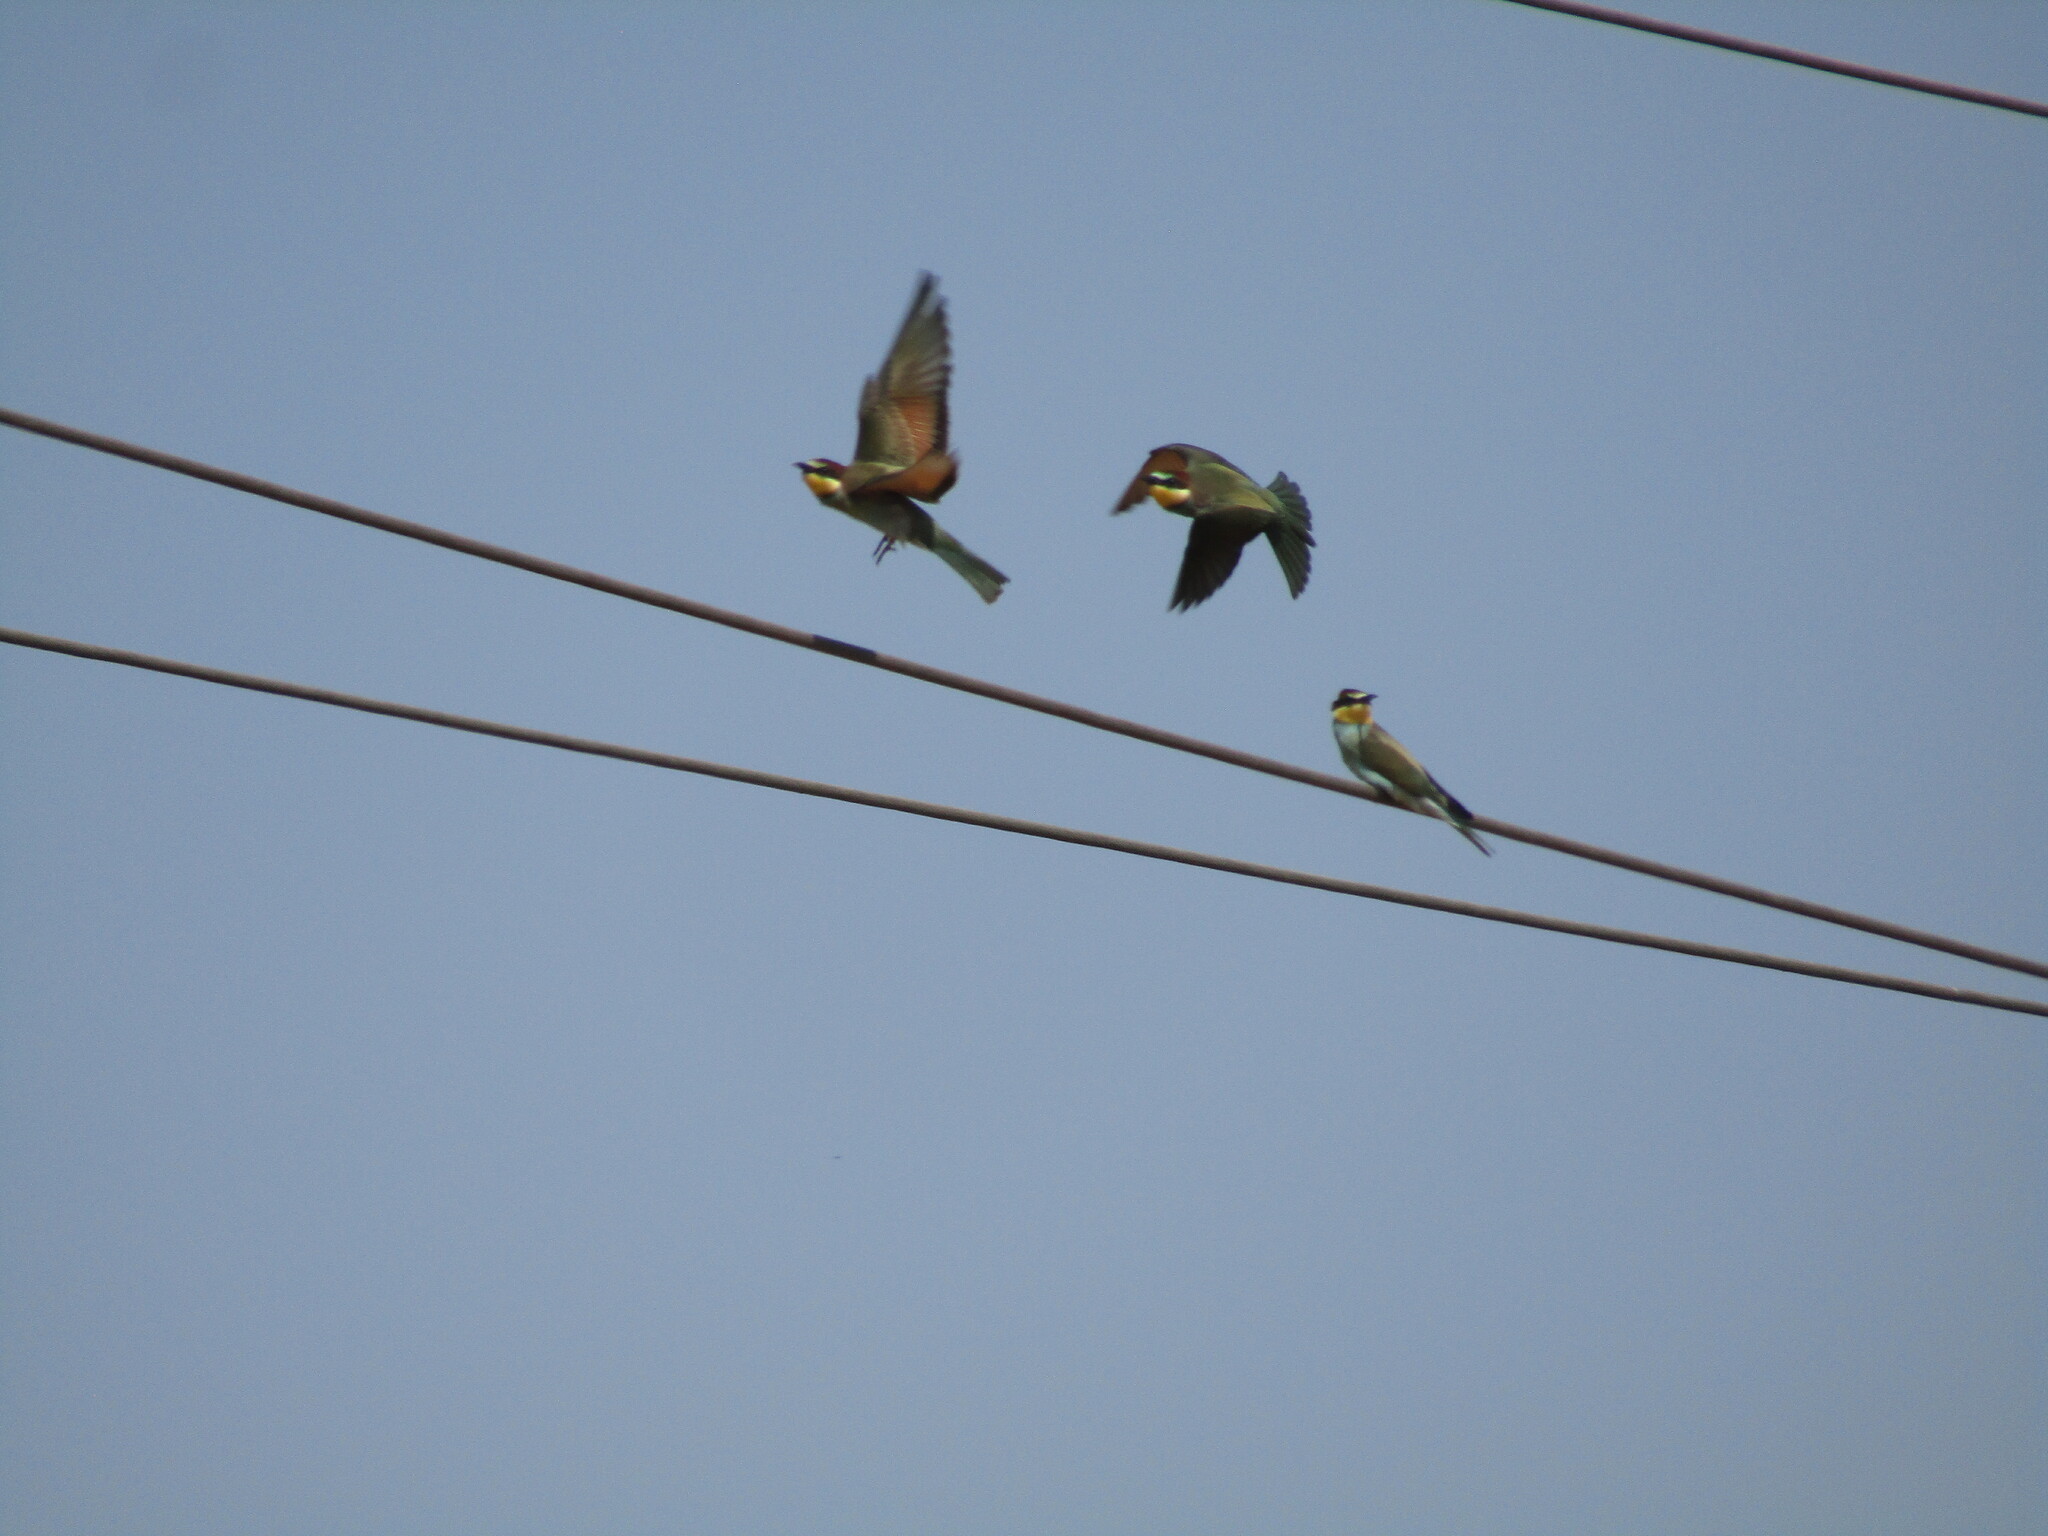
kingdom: Animalia
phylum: Chordata
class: Aves
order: Coraciiformes
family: Meropidae
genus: Merops
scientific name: Merops apiaster
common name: European bee-eater
